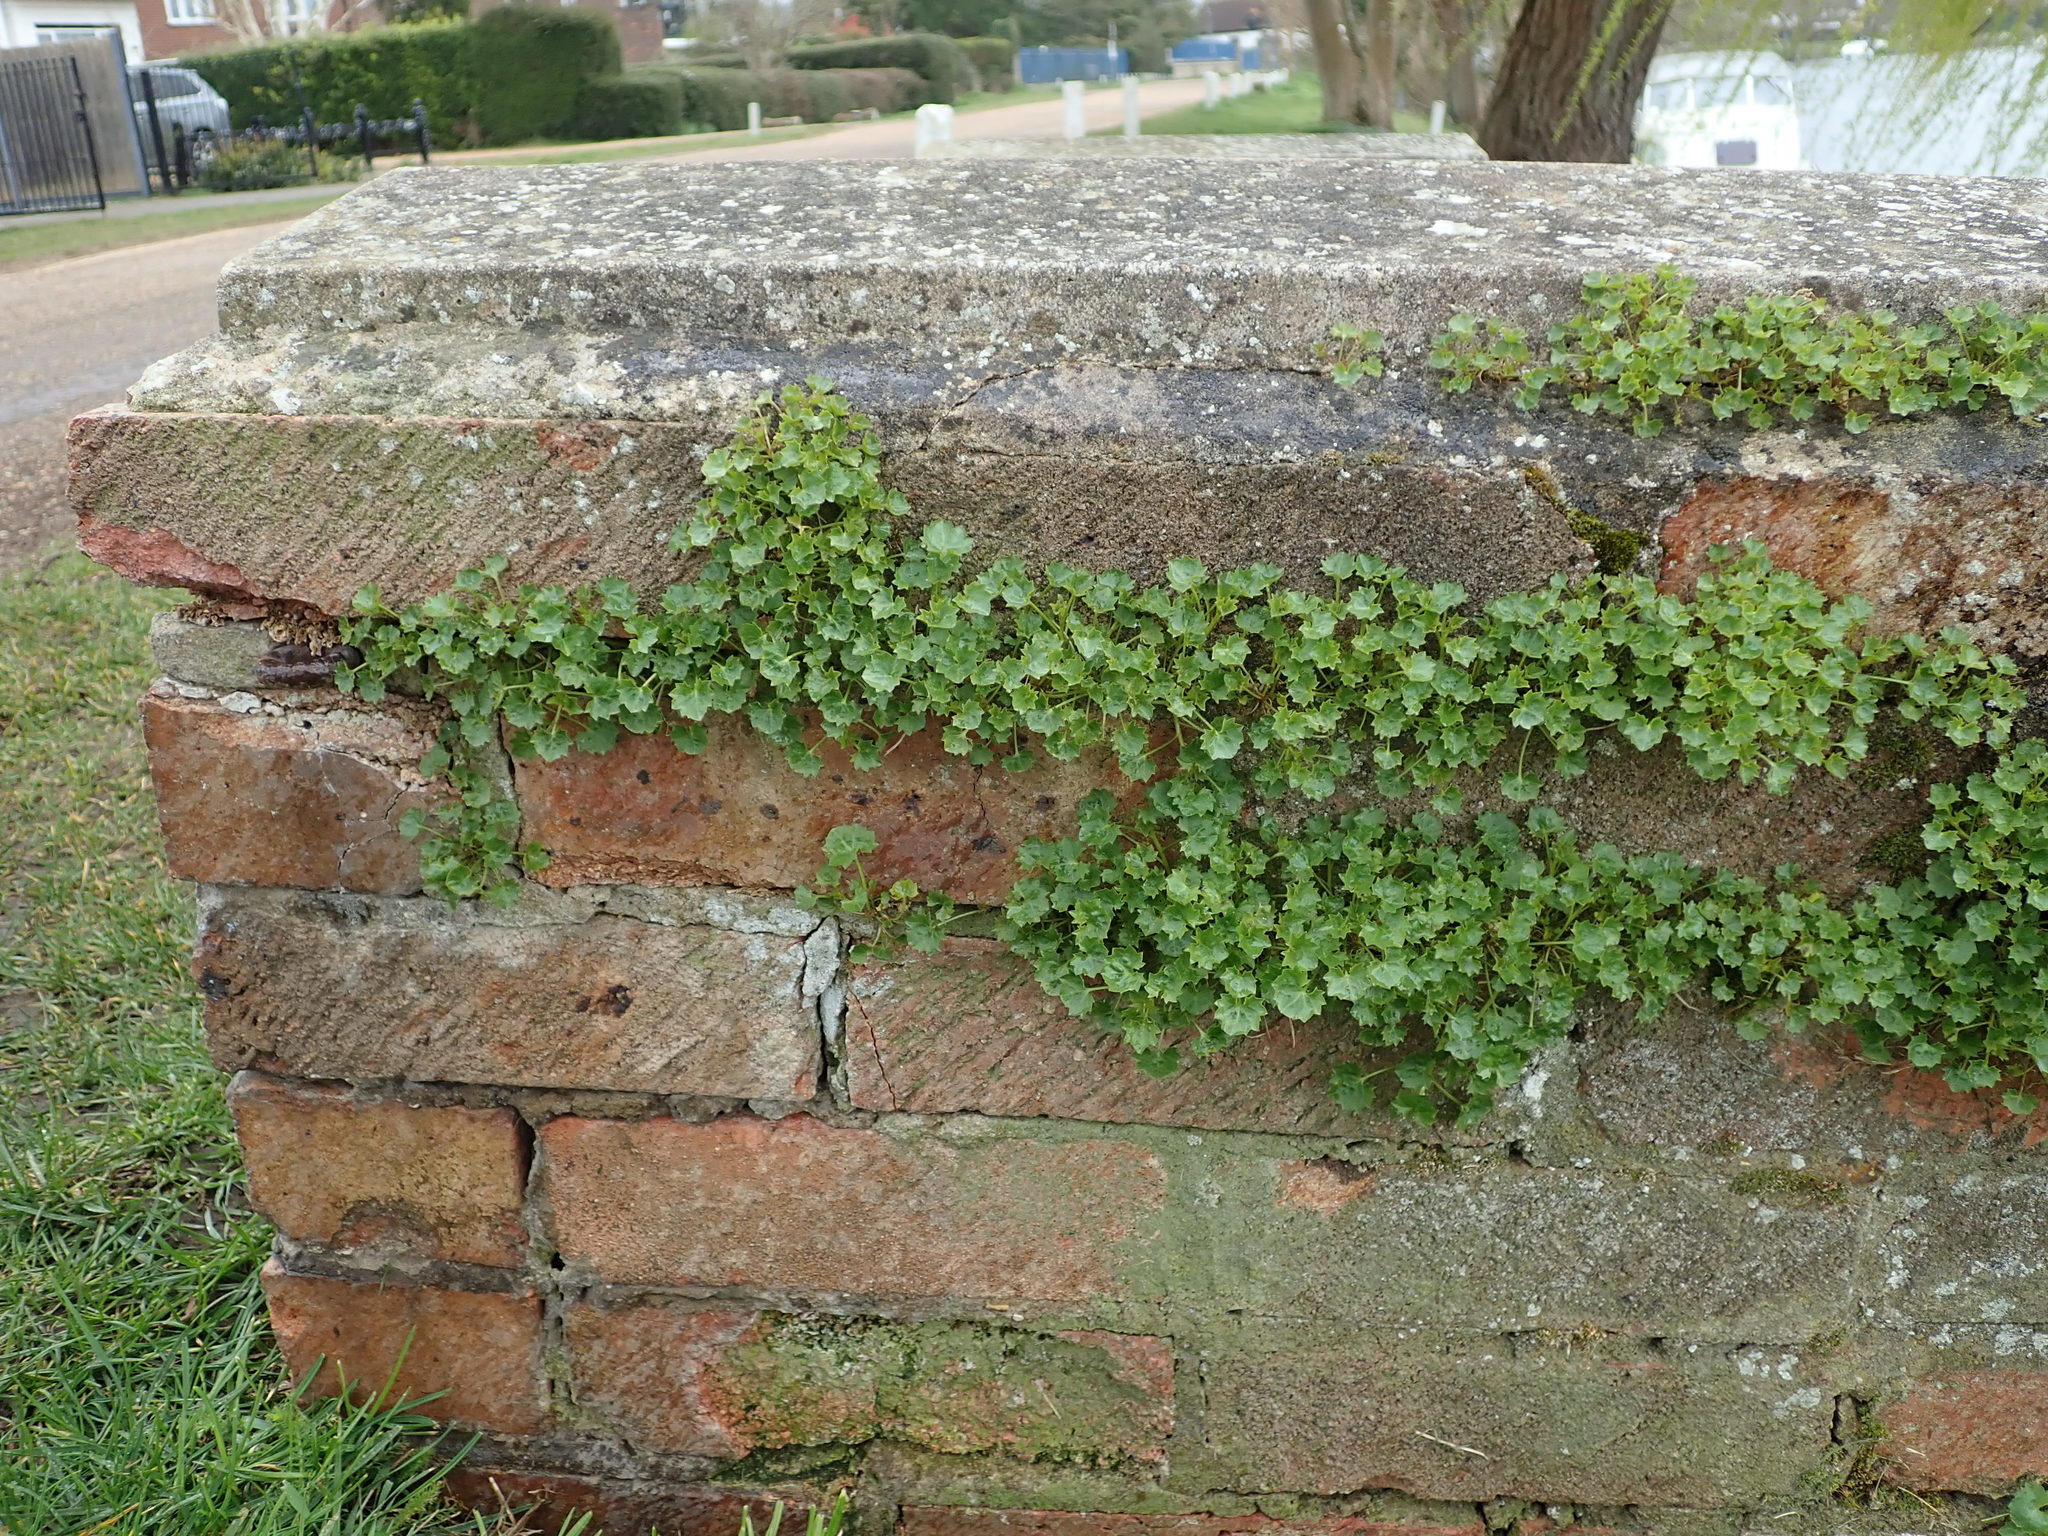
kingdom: Plantae
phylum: Tracheophyta
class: Magnoliopsida
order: Asterales
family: Campanulaceae
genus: Campanula
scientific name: Campanula portenschlagiana
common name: Adria bellflower
